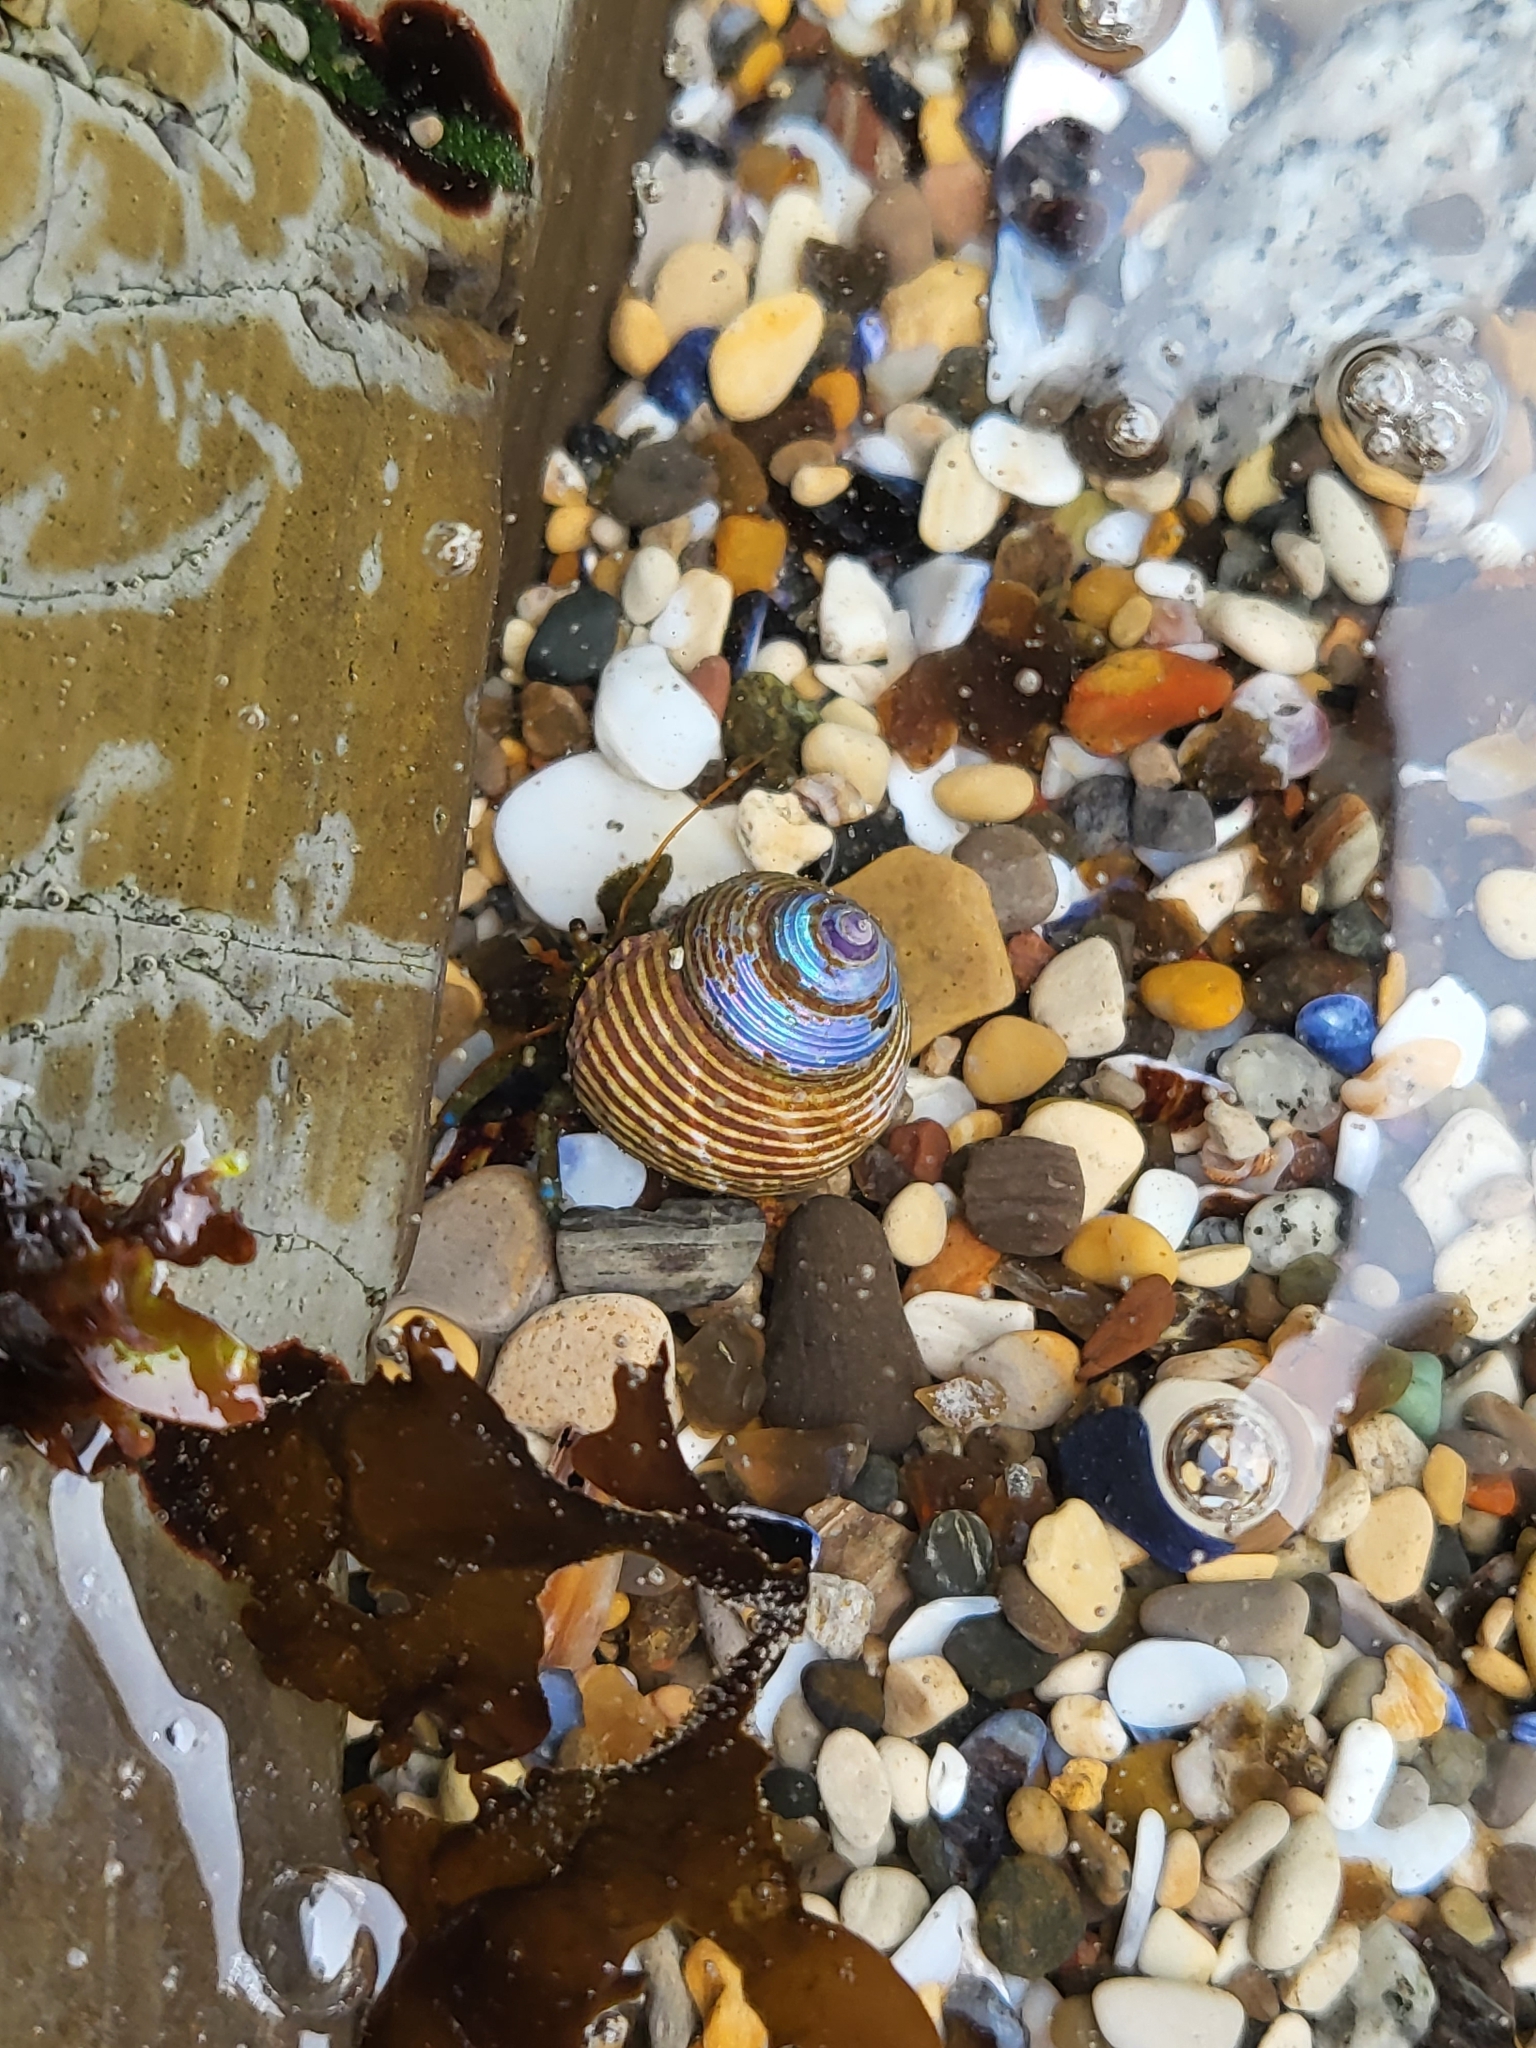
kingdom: Animalia
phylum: Mollusca
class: Gastropoda
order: Trochida
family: Calliostomatidae
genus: Calliostoma
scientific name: Calliostoma ligatum
